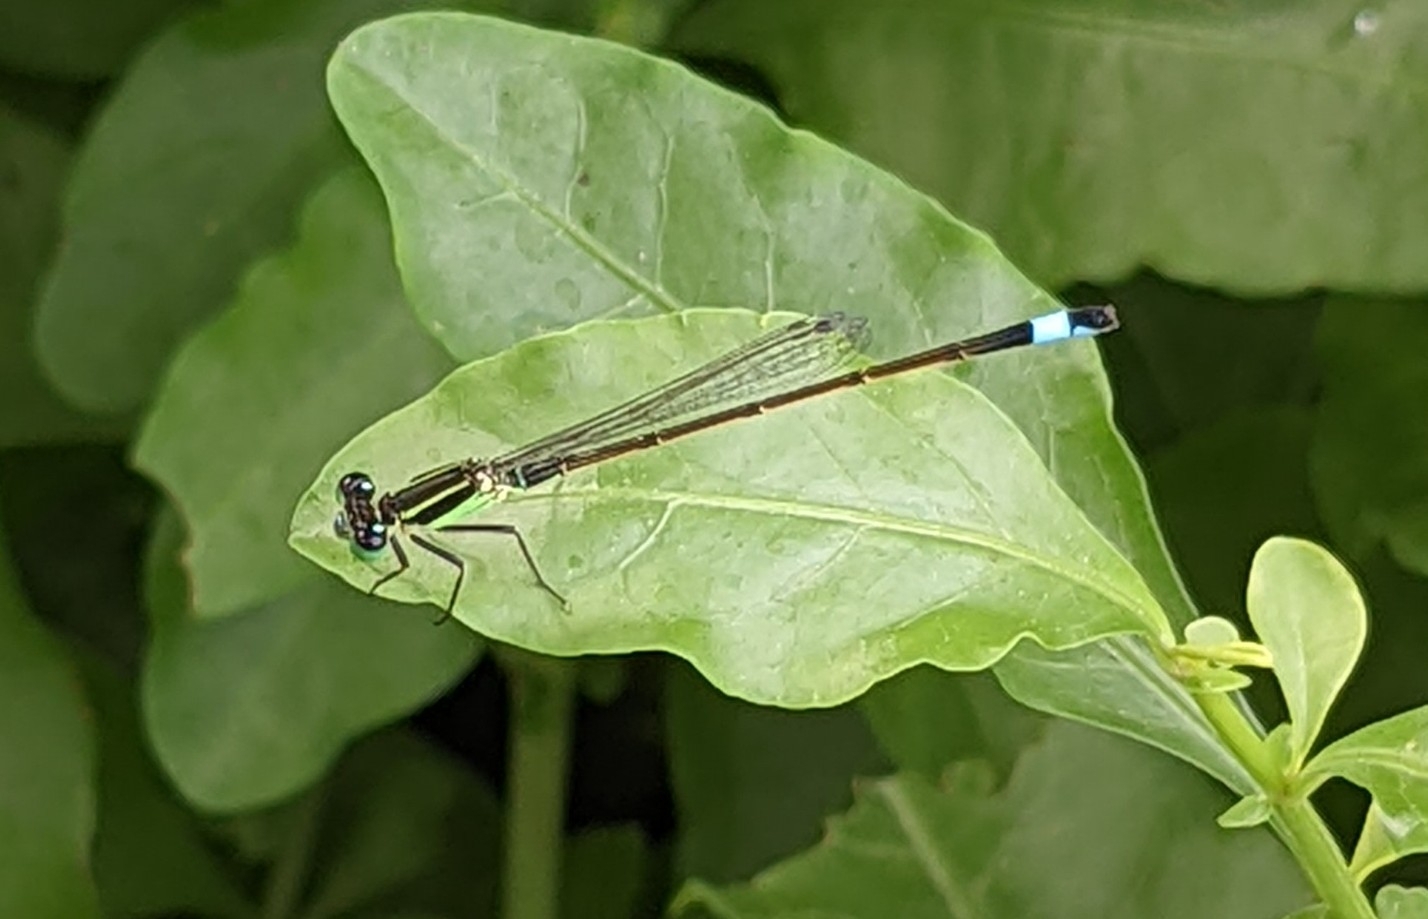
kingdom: Animalia
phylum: Arthropoda
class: Insecta
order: Odonata
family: Coenagrionidae
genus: Ischnura
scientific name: Ischnura ramburii
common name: Rambur's forktail
